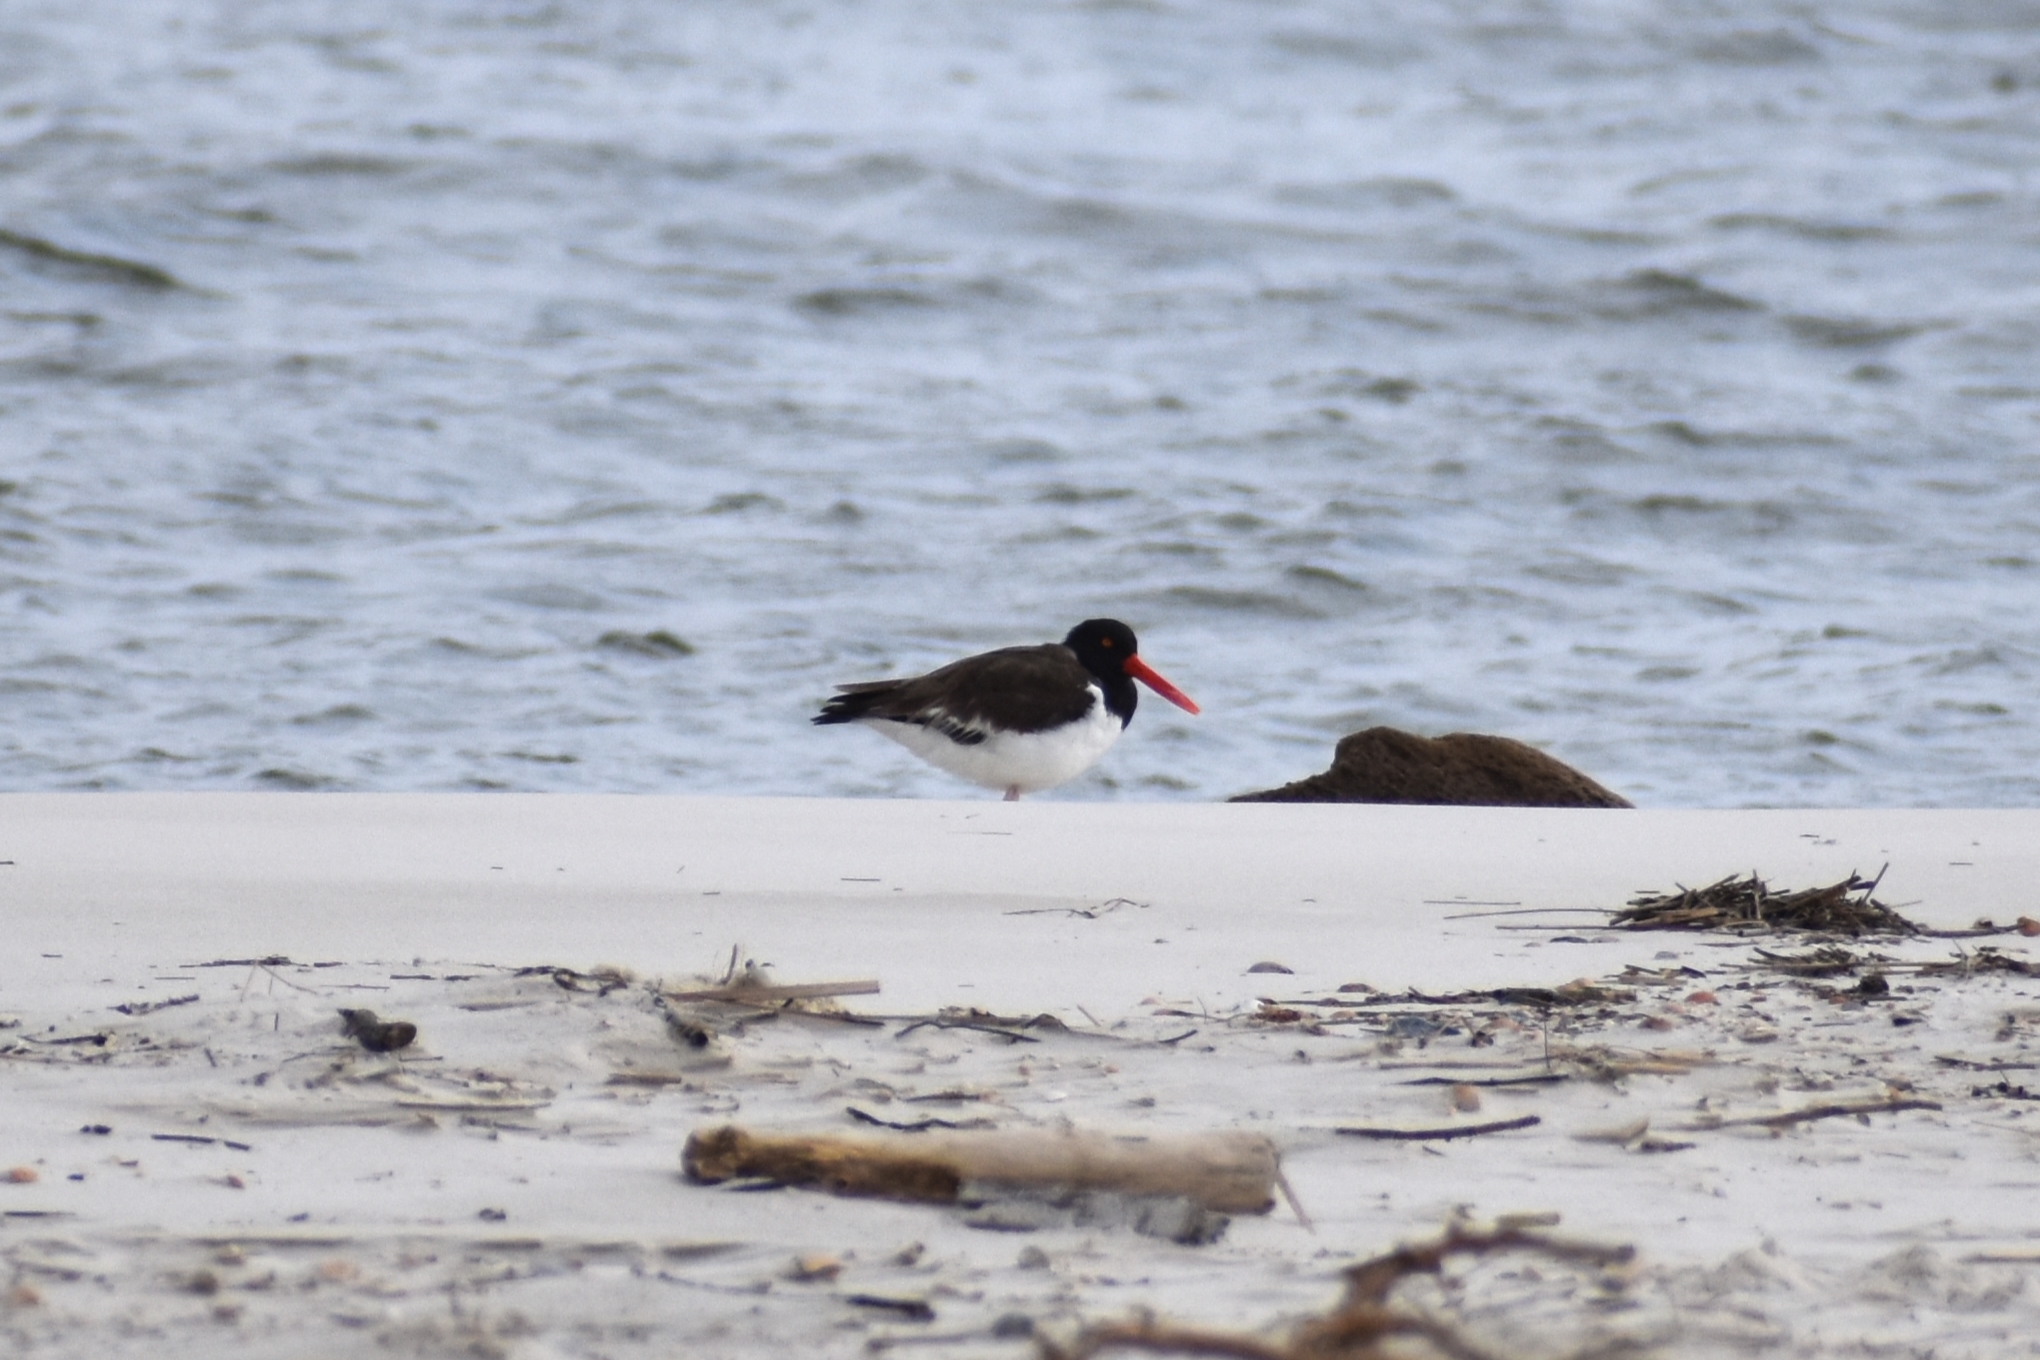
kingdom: Animalia
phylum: Chordata
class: Aves
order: Charadriiformes
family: Haematopodidae
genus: Haematopus
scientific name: Haematopus palliatus
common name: American oystercatcher
